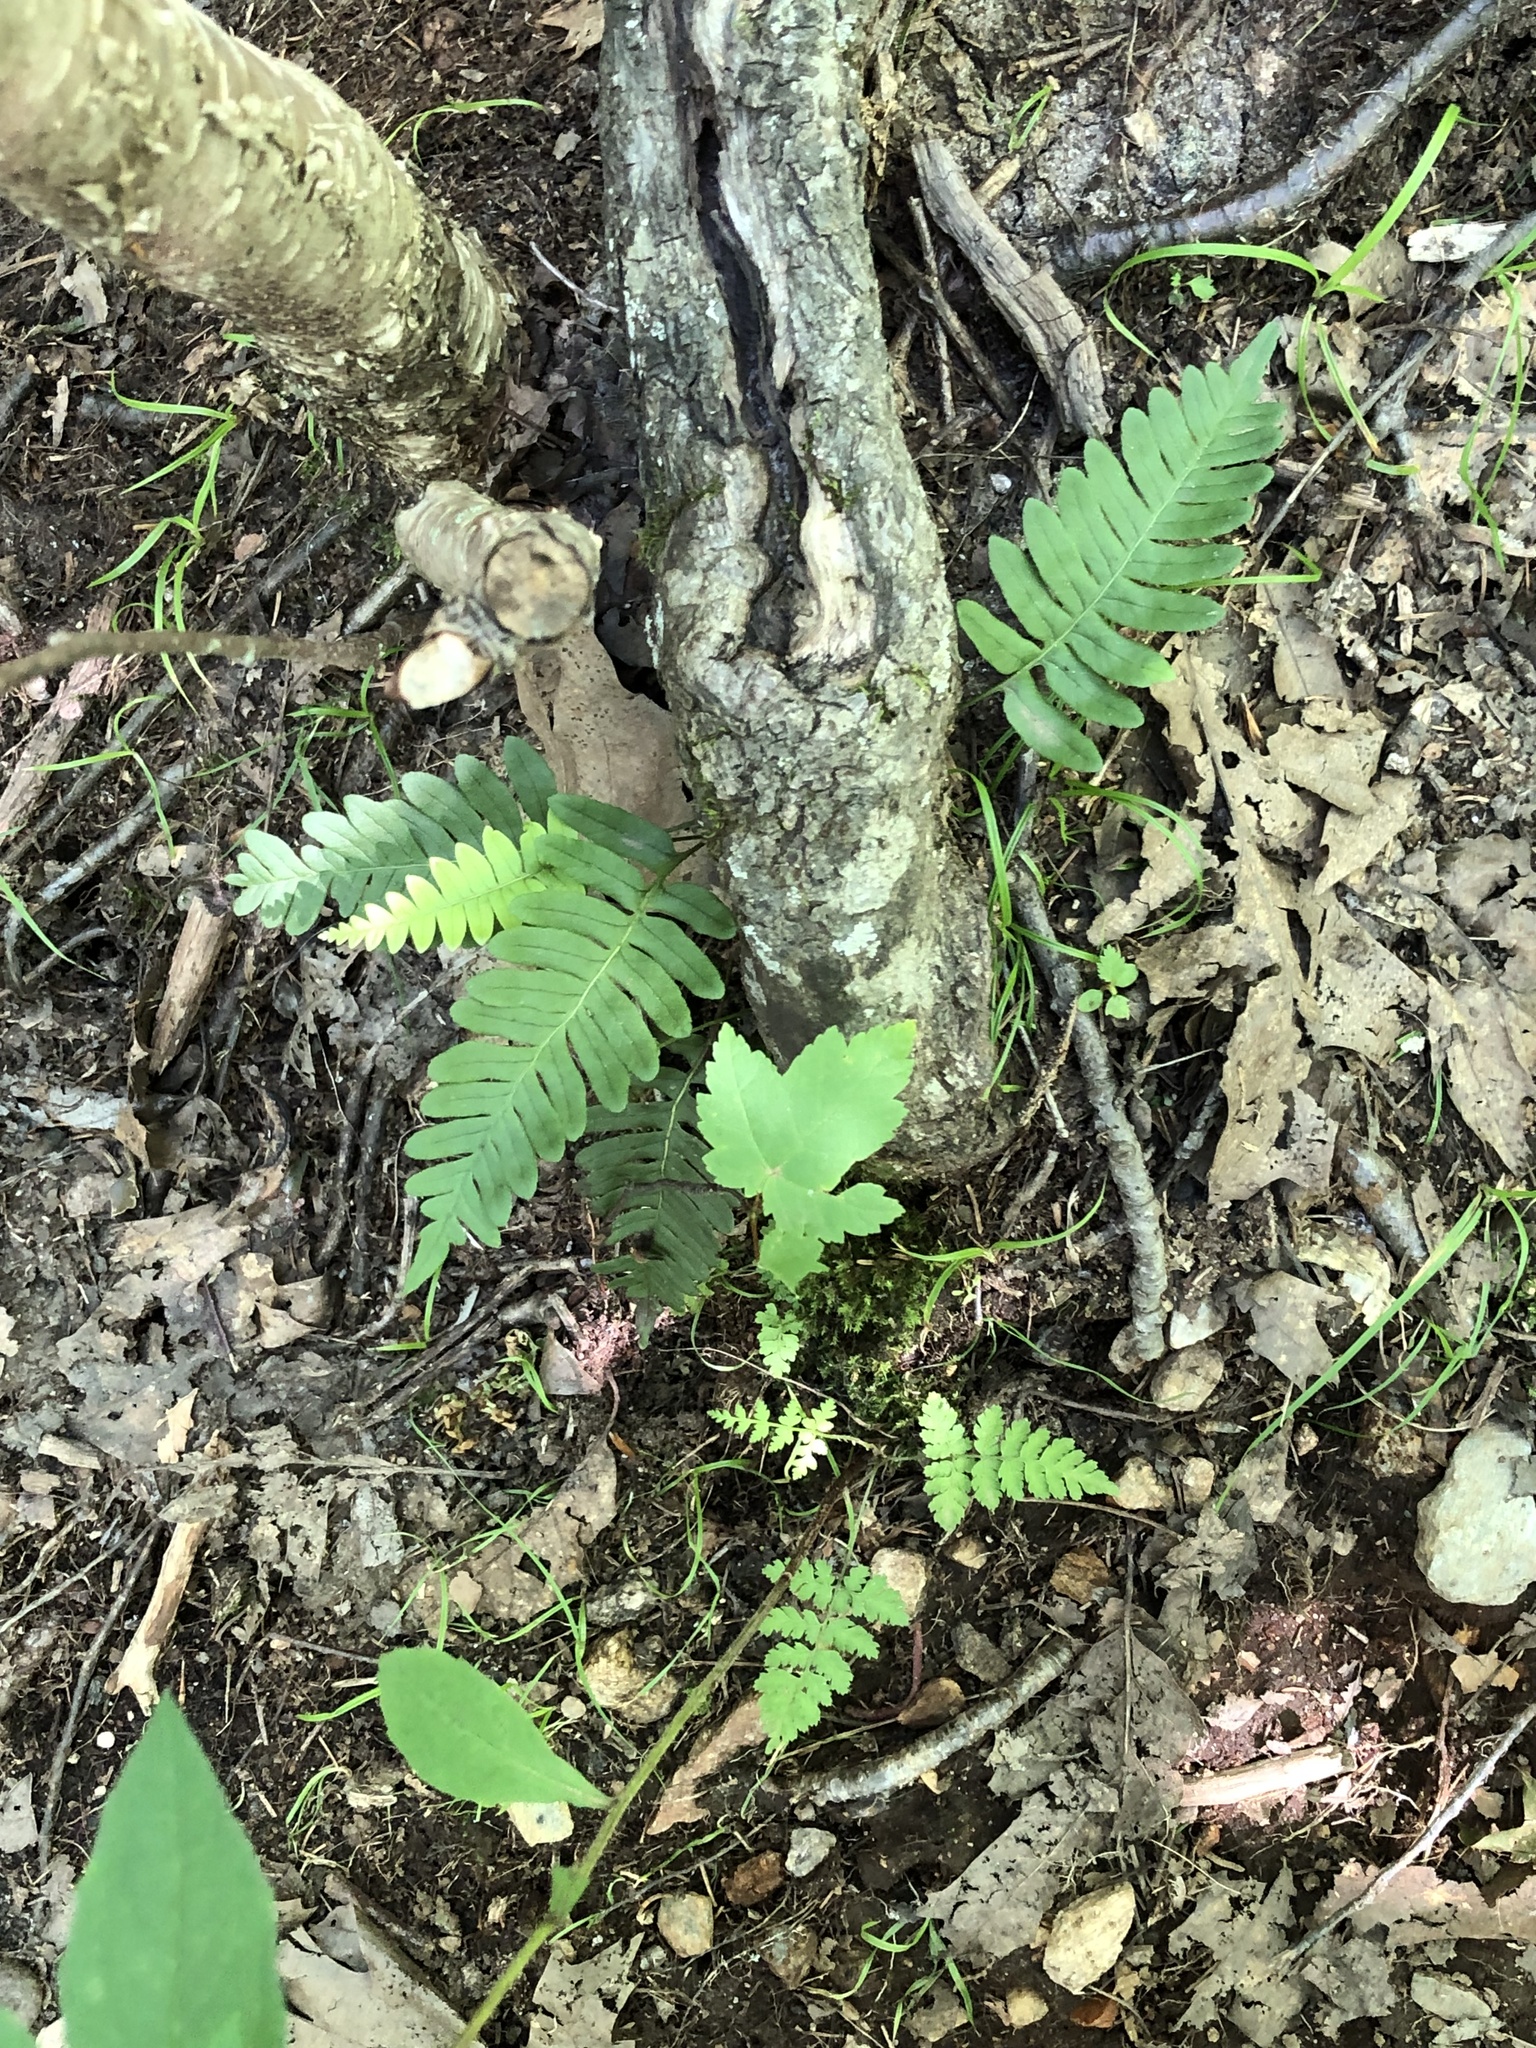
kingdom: Plantae
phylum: Tracheophyta
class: Polypodiopsida
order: Polypodiales
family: Polypodiaceae
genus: Polypodium
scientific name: Polypodium virginianum
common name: American wall fern
